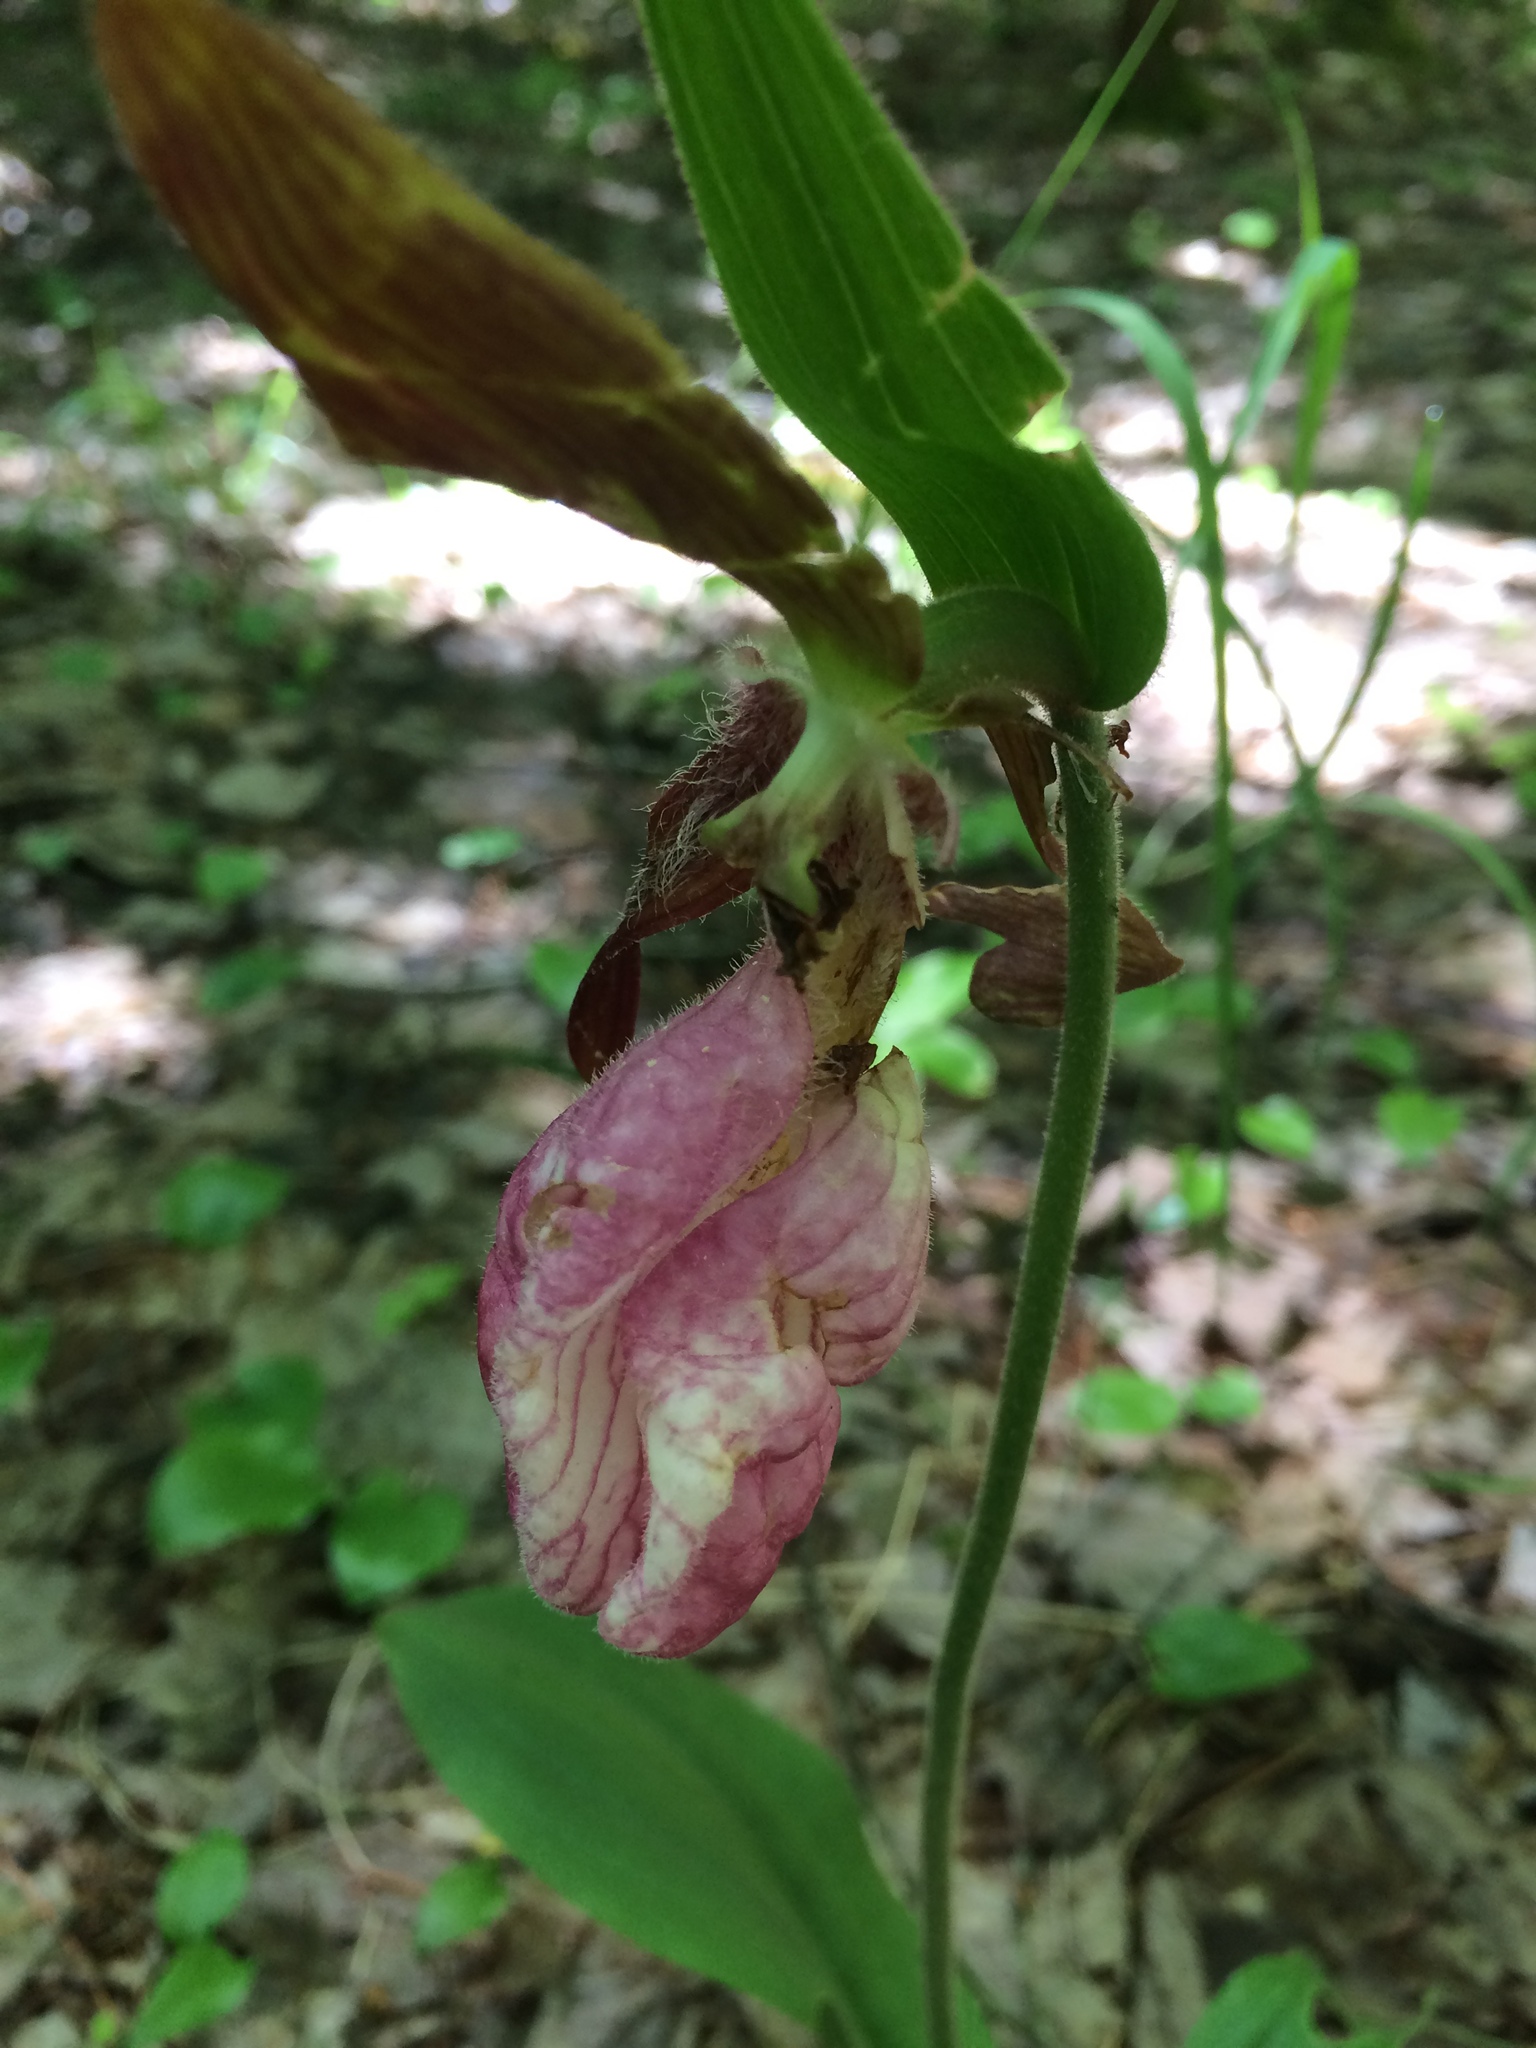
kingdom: Plantae
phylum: Tracheophyta
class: Liliopsida
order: Asparagales
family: Orchidaceae
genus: Cypripedium
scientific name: Cypripedium acaule
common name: Pink lady's-slipper
